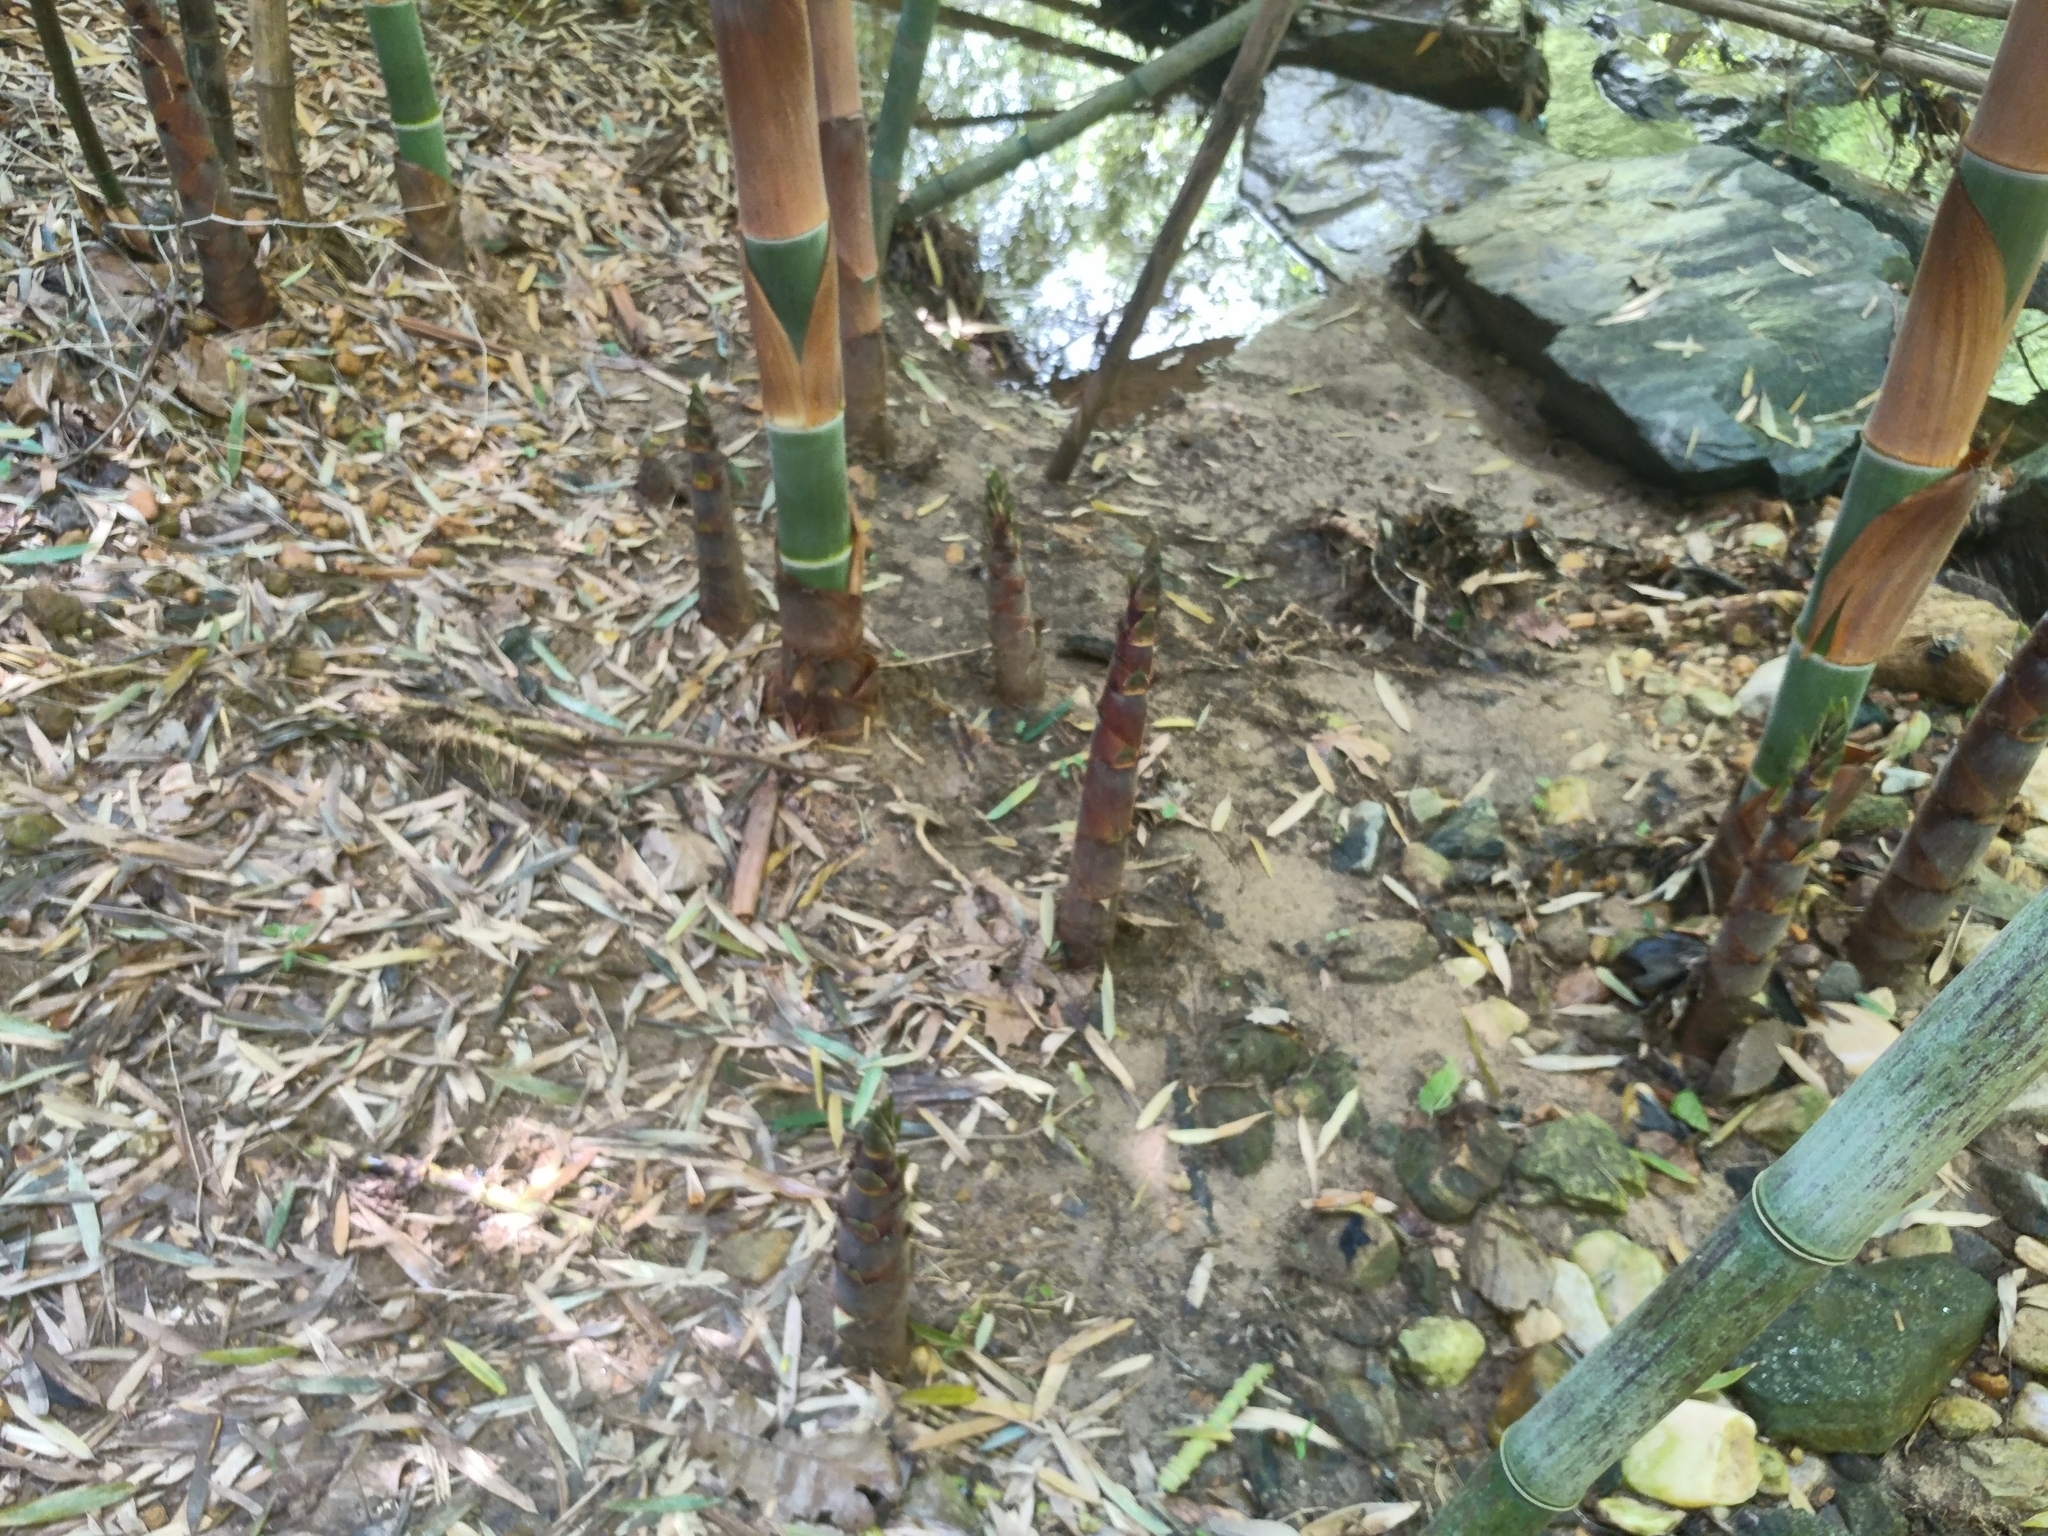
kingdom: Plantae
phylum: Tracheophyta
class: Liliopsida
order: Poales
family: Poaceae
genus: Phyllostachys
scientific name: Phyllostachys nigra
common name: Black bamboo
